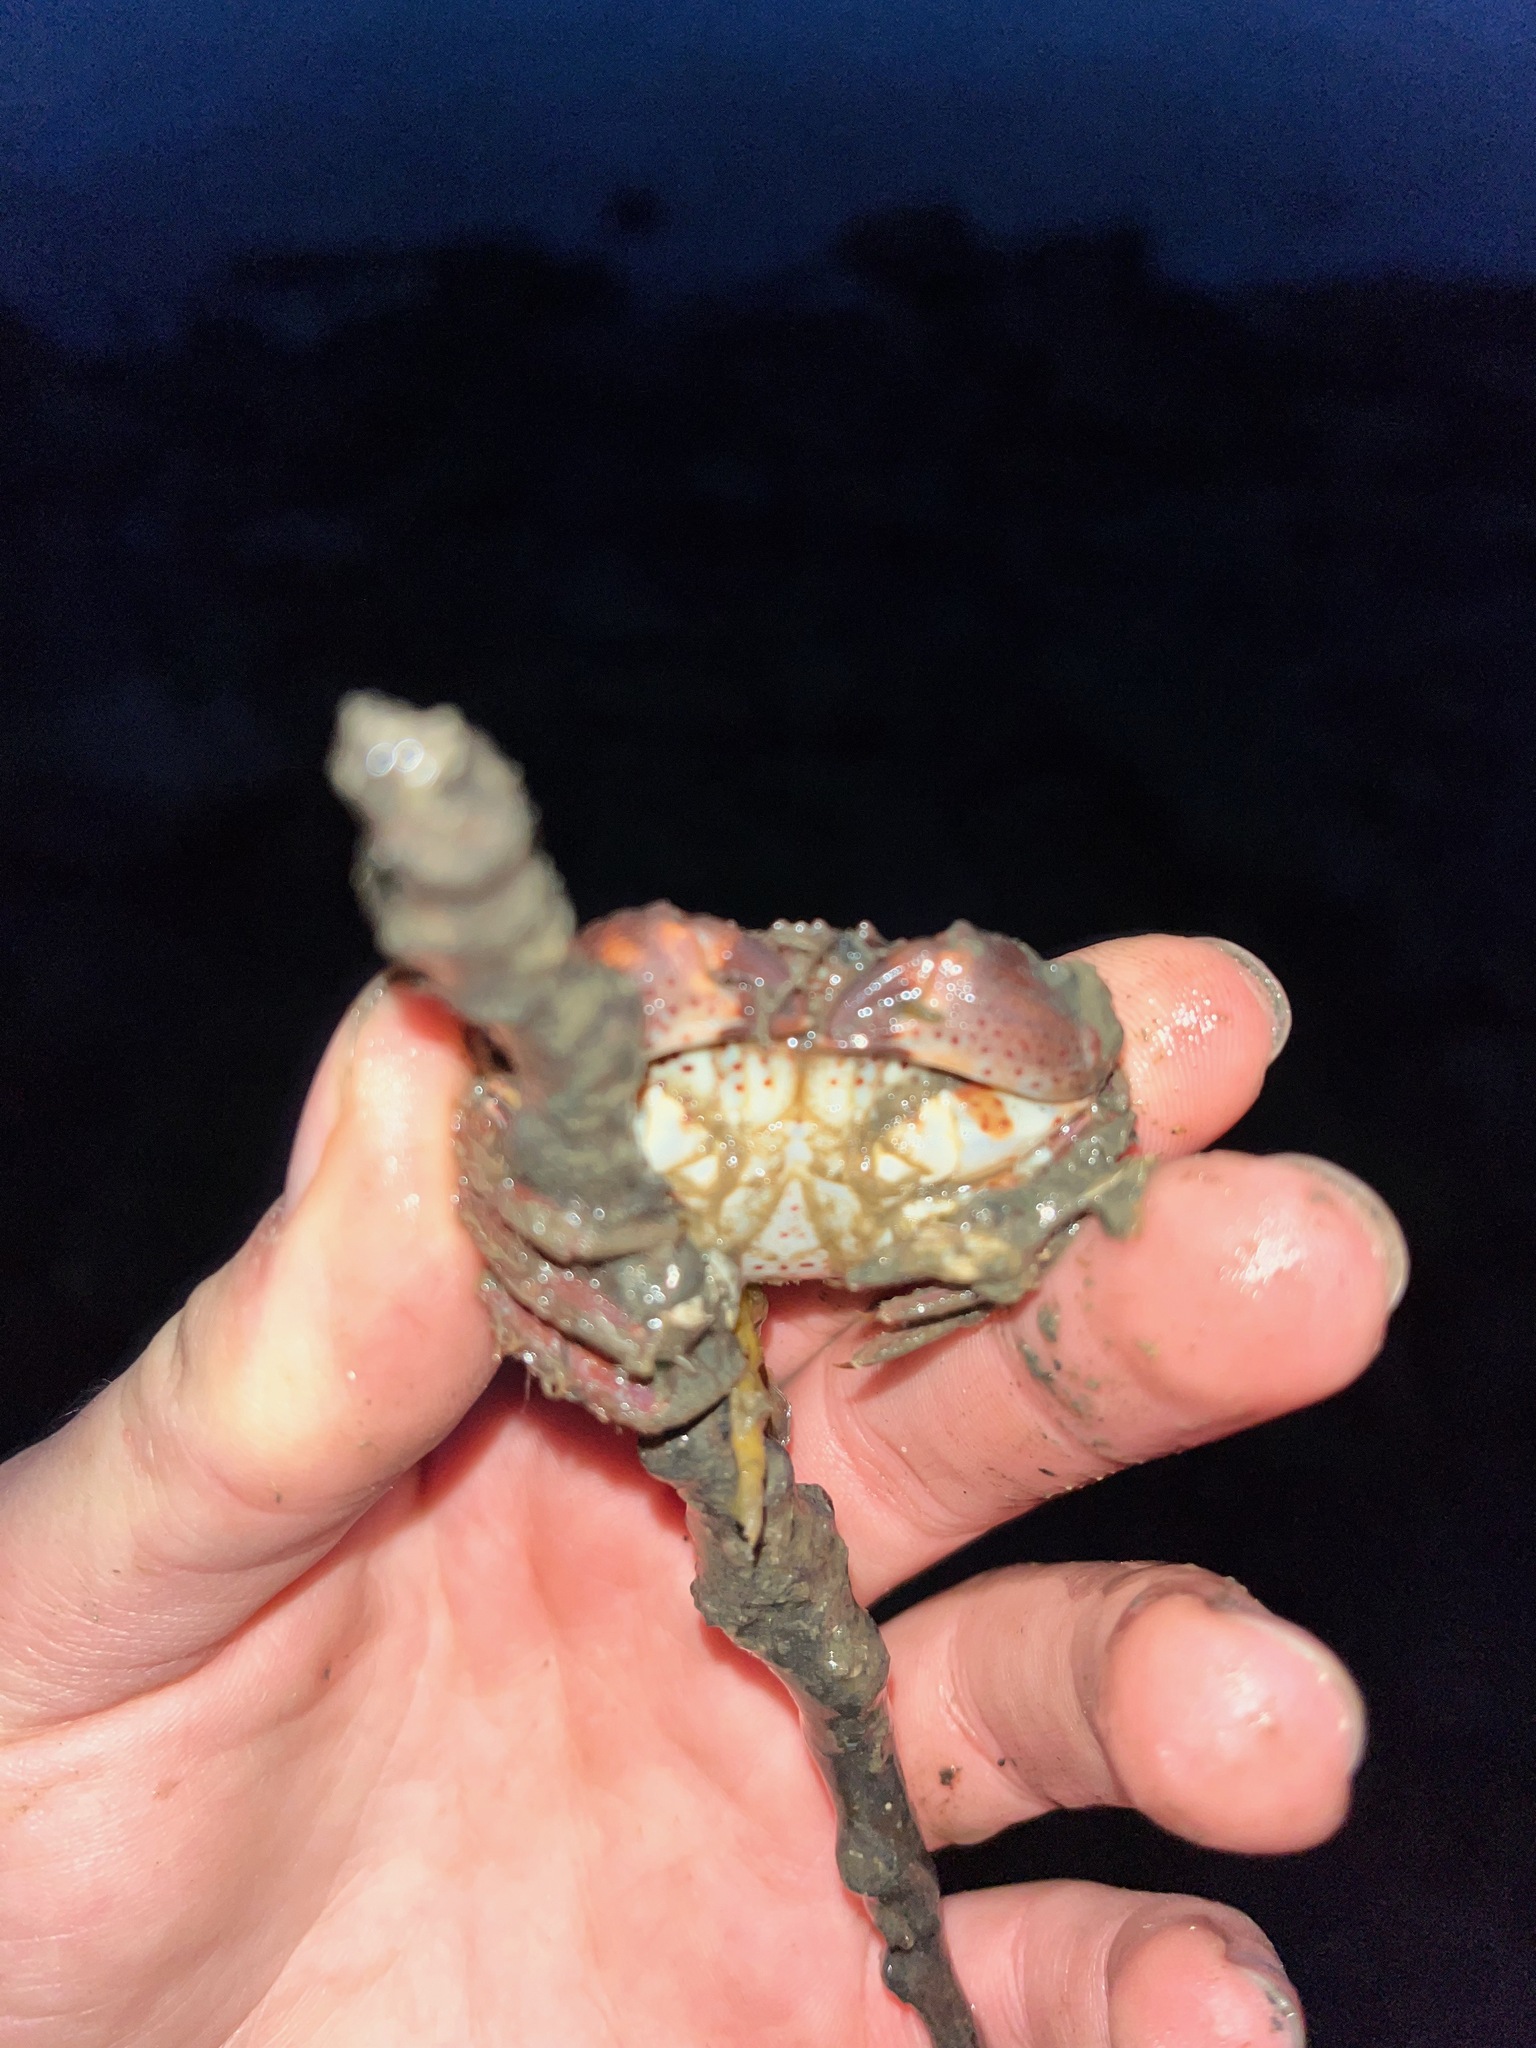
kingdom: Animalia
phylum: Arthropoda
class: Malacostraca
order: Decapoda
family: Cancridae
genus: Romaleon
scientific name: Romaleon antennarium
